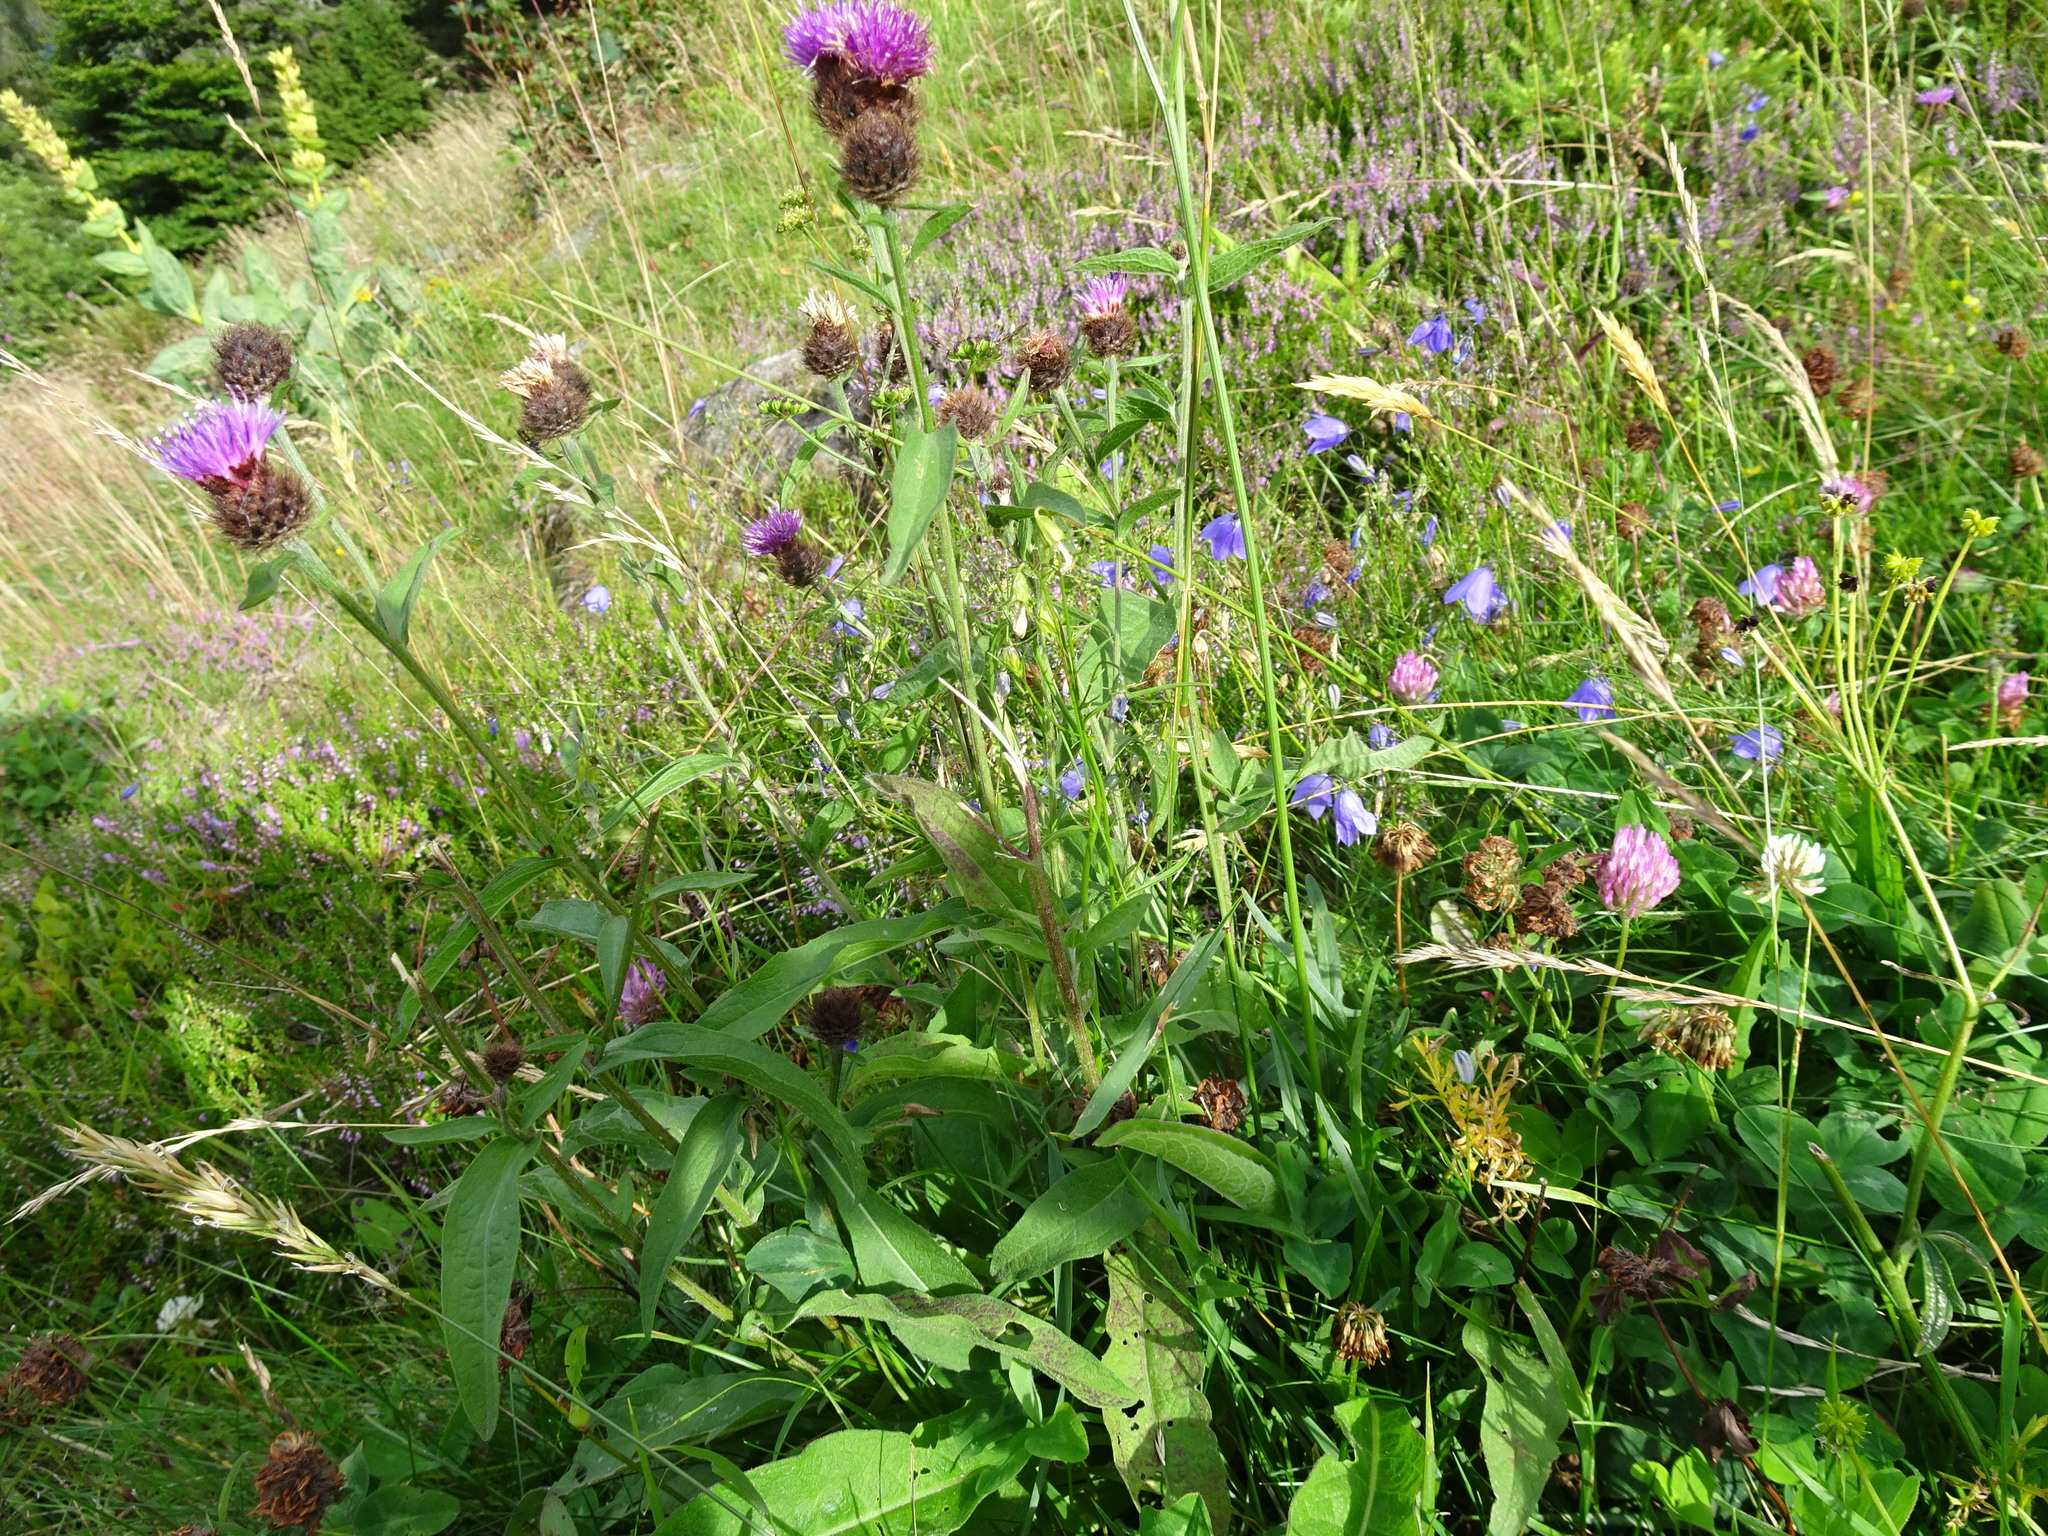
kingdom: Plantae
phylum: Tracheophyta
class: Magnoliopsida
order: Asterales
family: Asteraceae
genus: Centaurea
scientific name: Centaurea nigra
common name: Lesser knapweed
